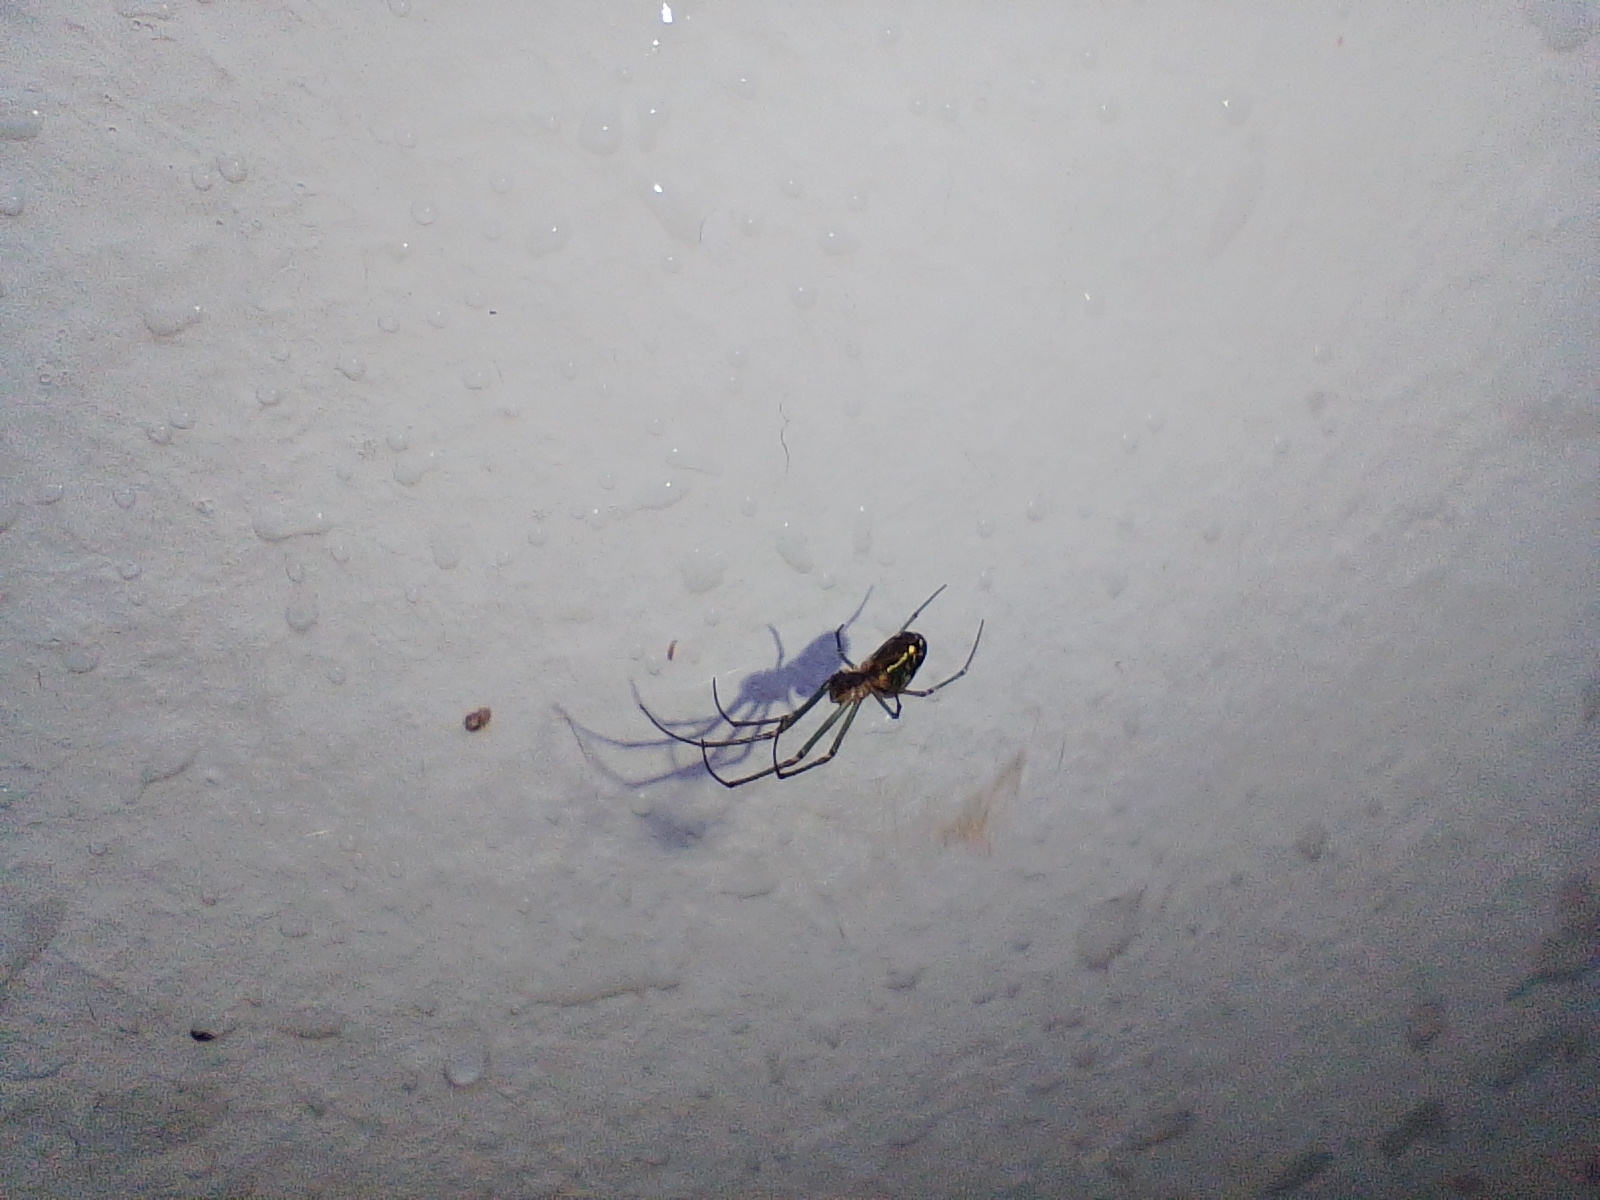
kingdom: Animalia
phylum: Arthropoda
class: Arachnida
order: Araneae
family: Tetragnathidae
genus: Leucauge
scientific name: Leucauge volupis
